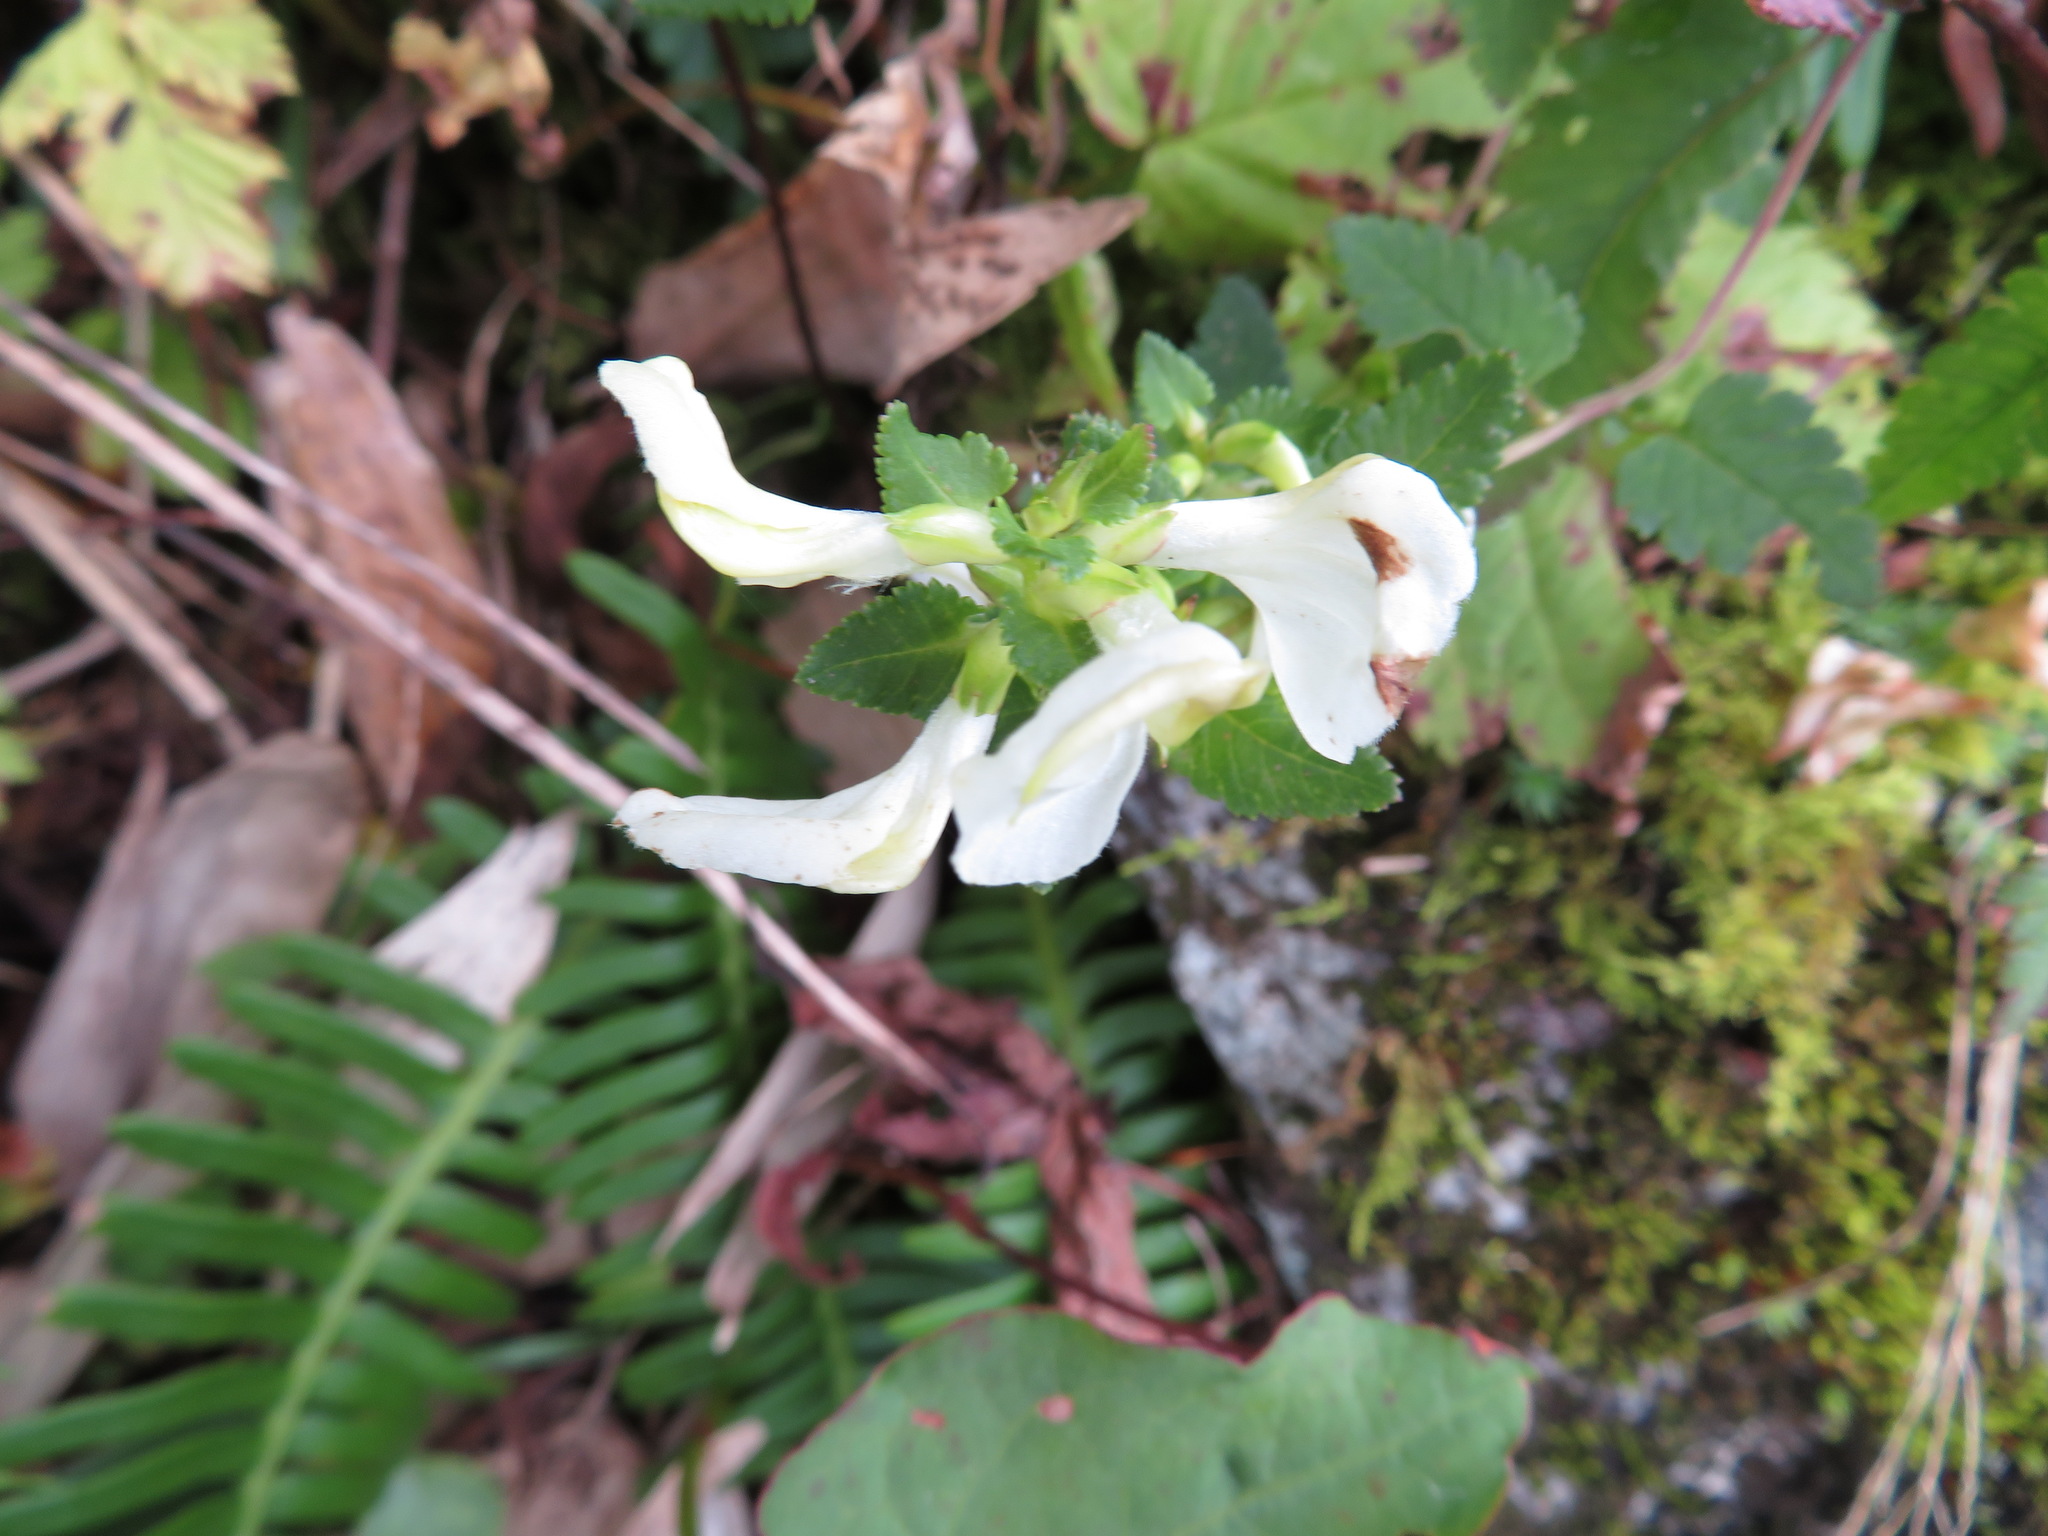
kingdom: Plantae
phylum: Tracheophyta
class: Magnoliopsida
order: Lamiales
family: Orobanchaceae
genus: Pedicularis
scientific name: Pedicularis yezoensis
